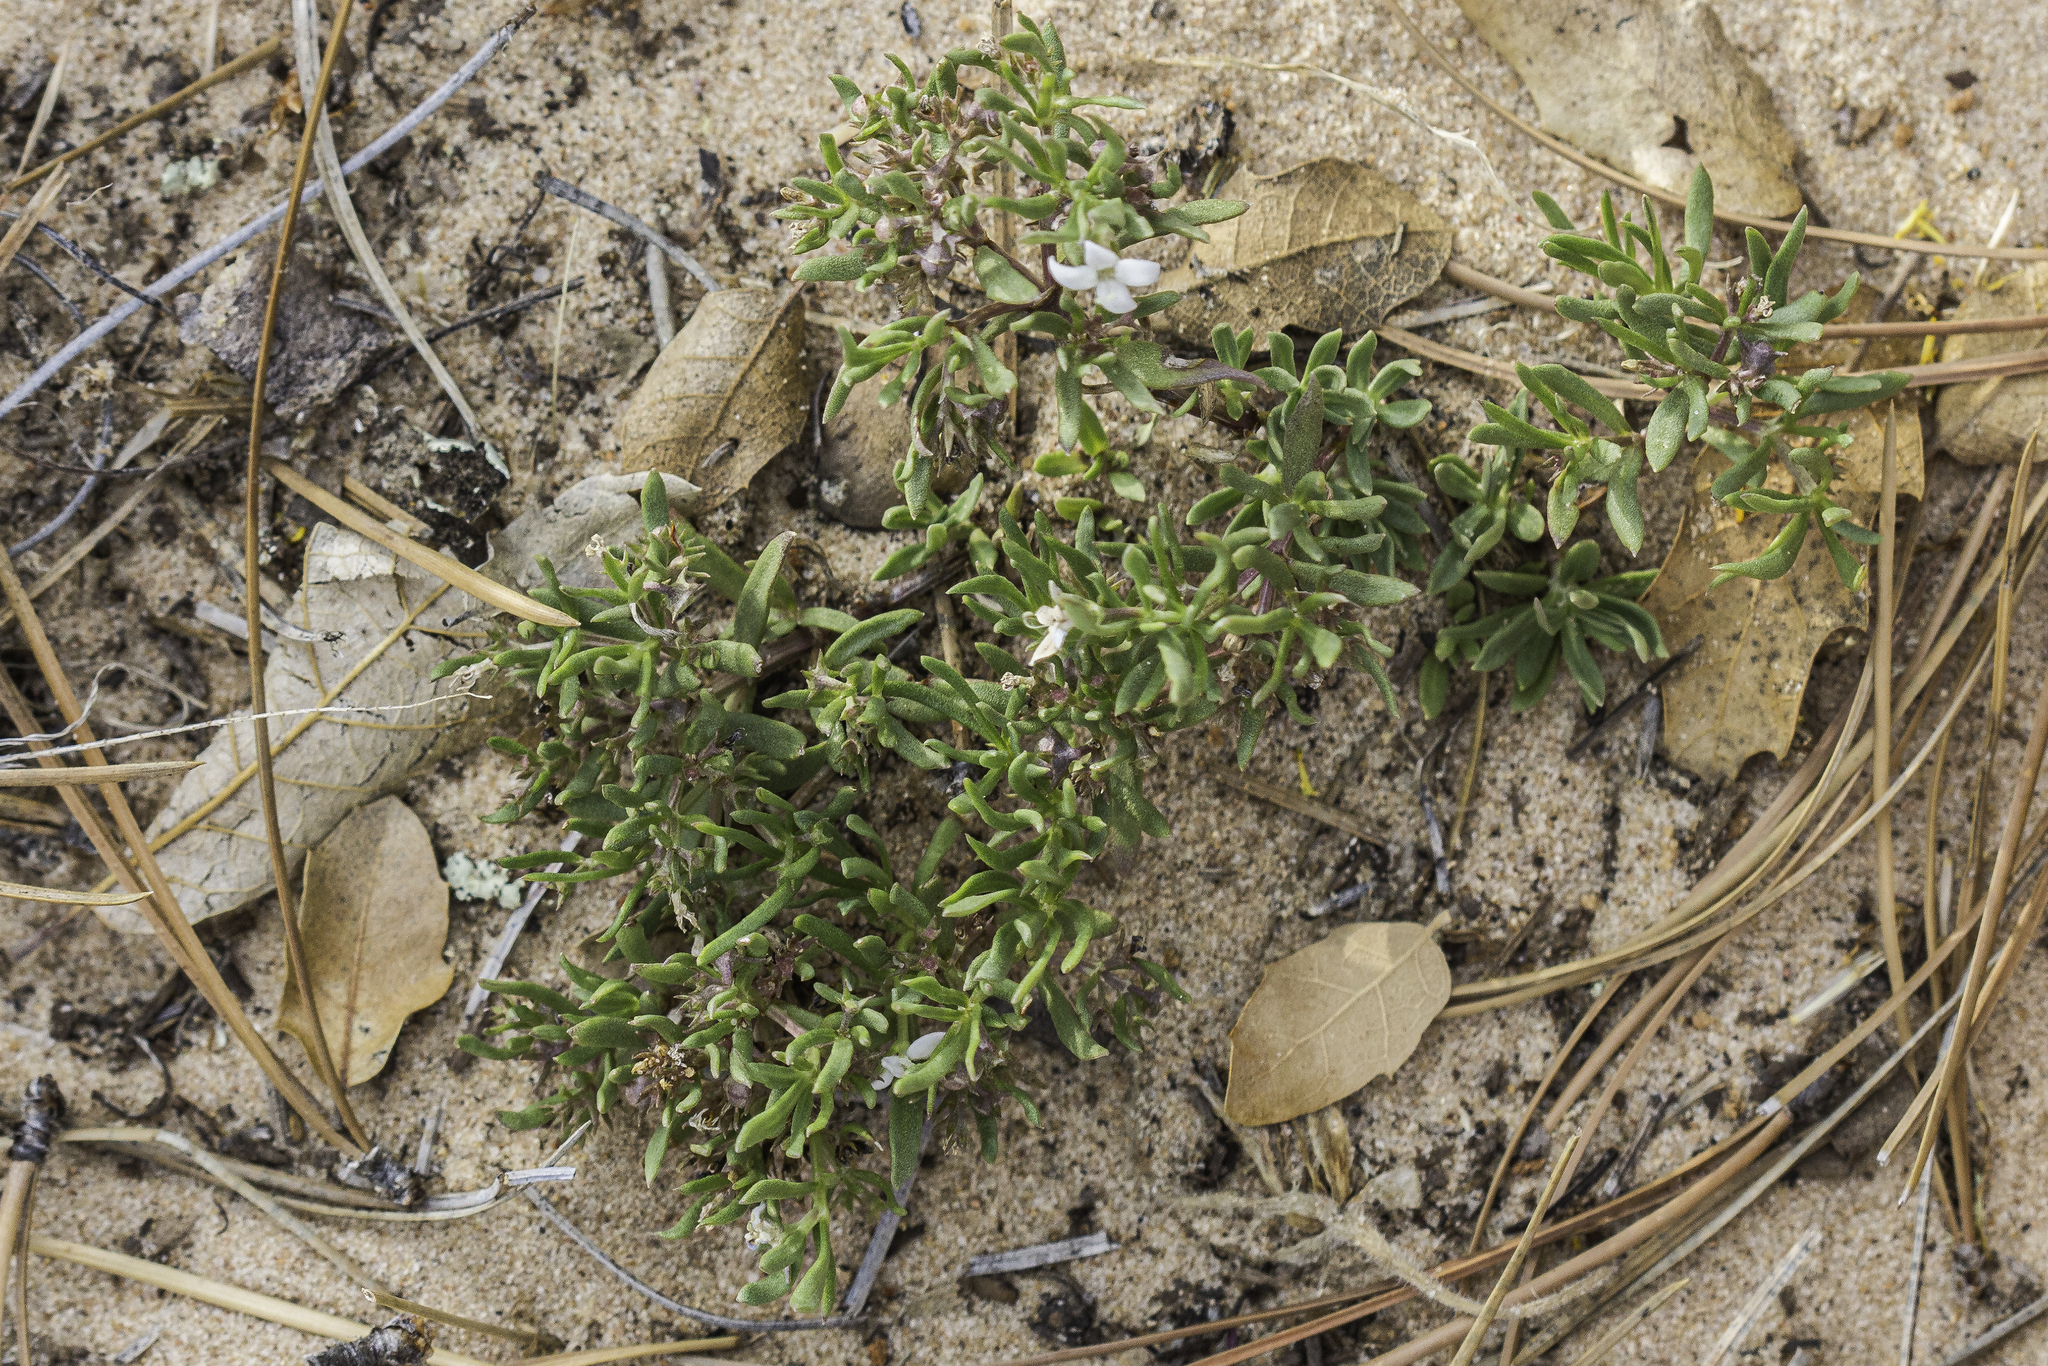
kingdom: Plantae
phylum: Tracheophyta
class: Magnoliopsida
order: Gentianales
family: Rubiaceae
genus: Houstonia
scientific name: Houstonia wrightii
